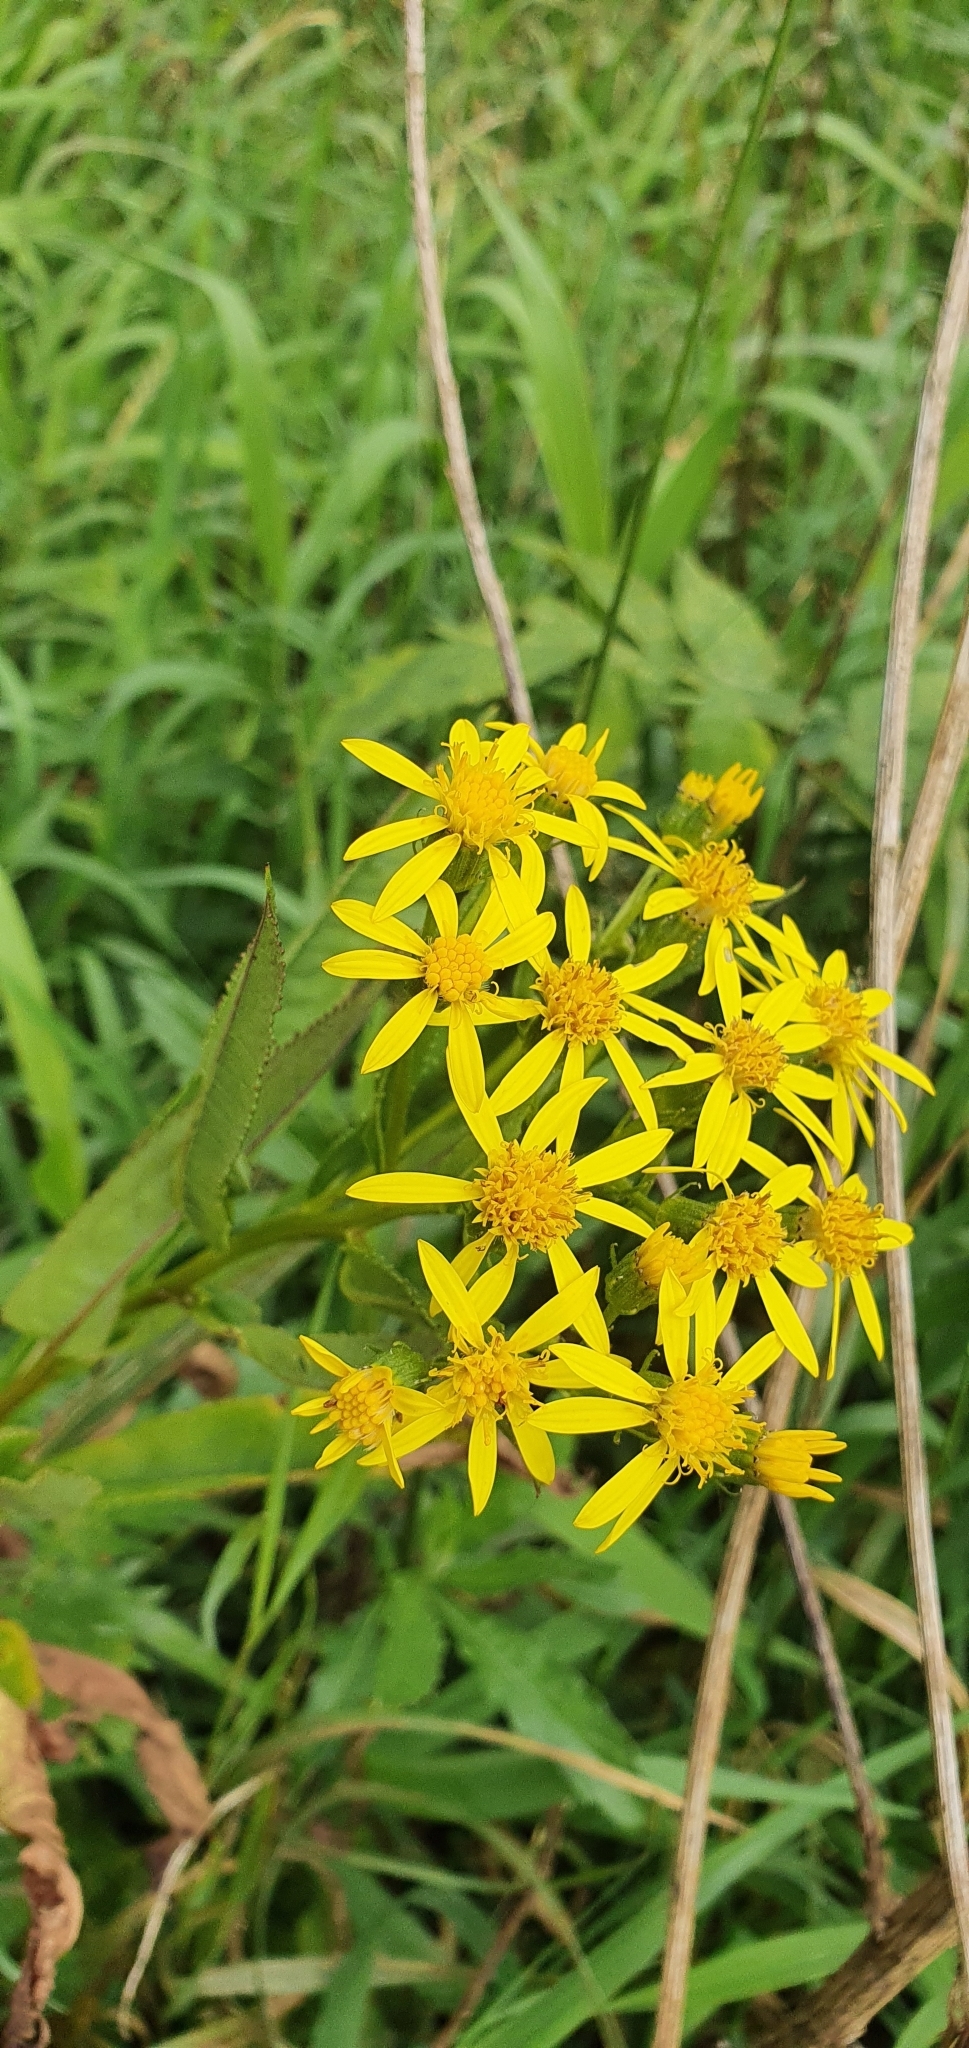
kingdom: Plantae
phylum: Tracheophyta
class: Magnoliopsida
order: Asterales
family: Asteraceae
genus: Senecio
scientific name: Senecio sarracenicus
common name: Broad-leaved ragwort
